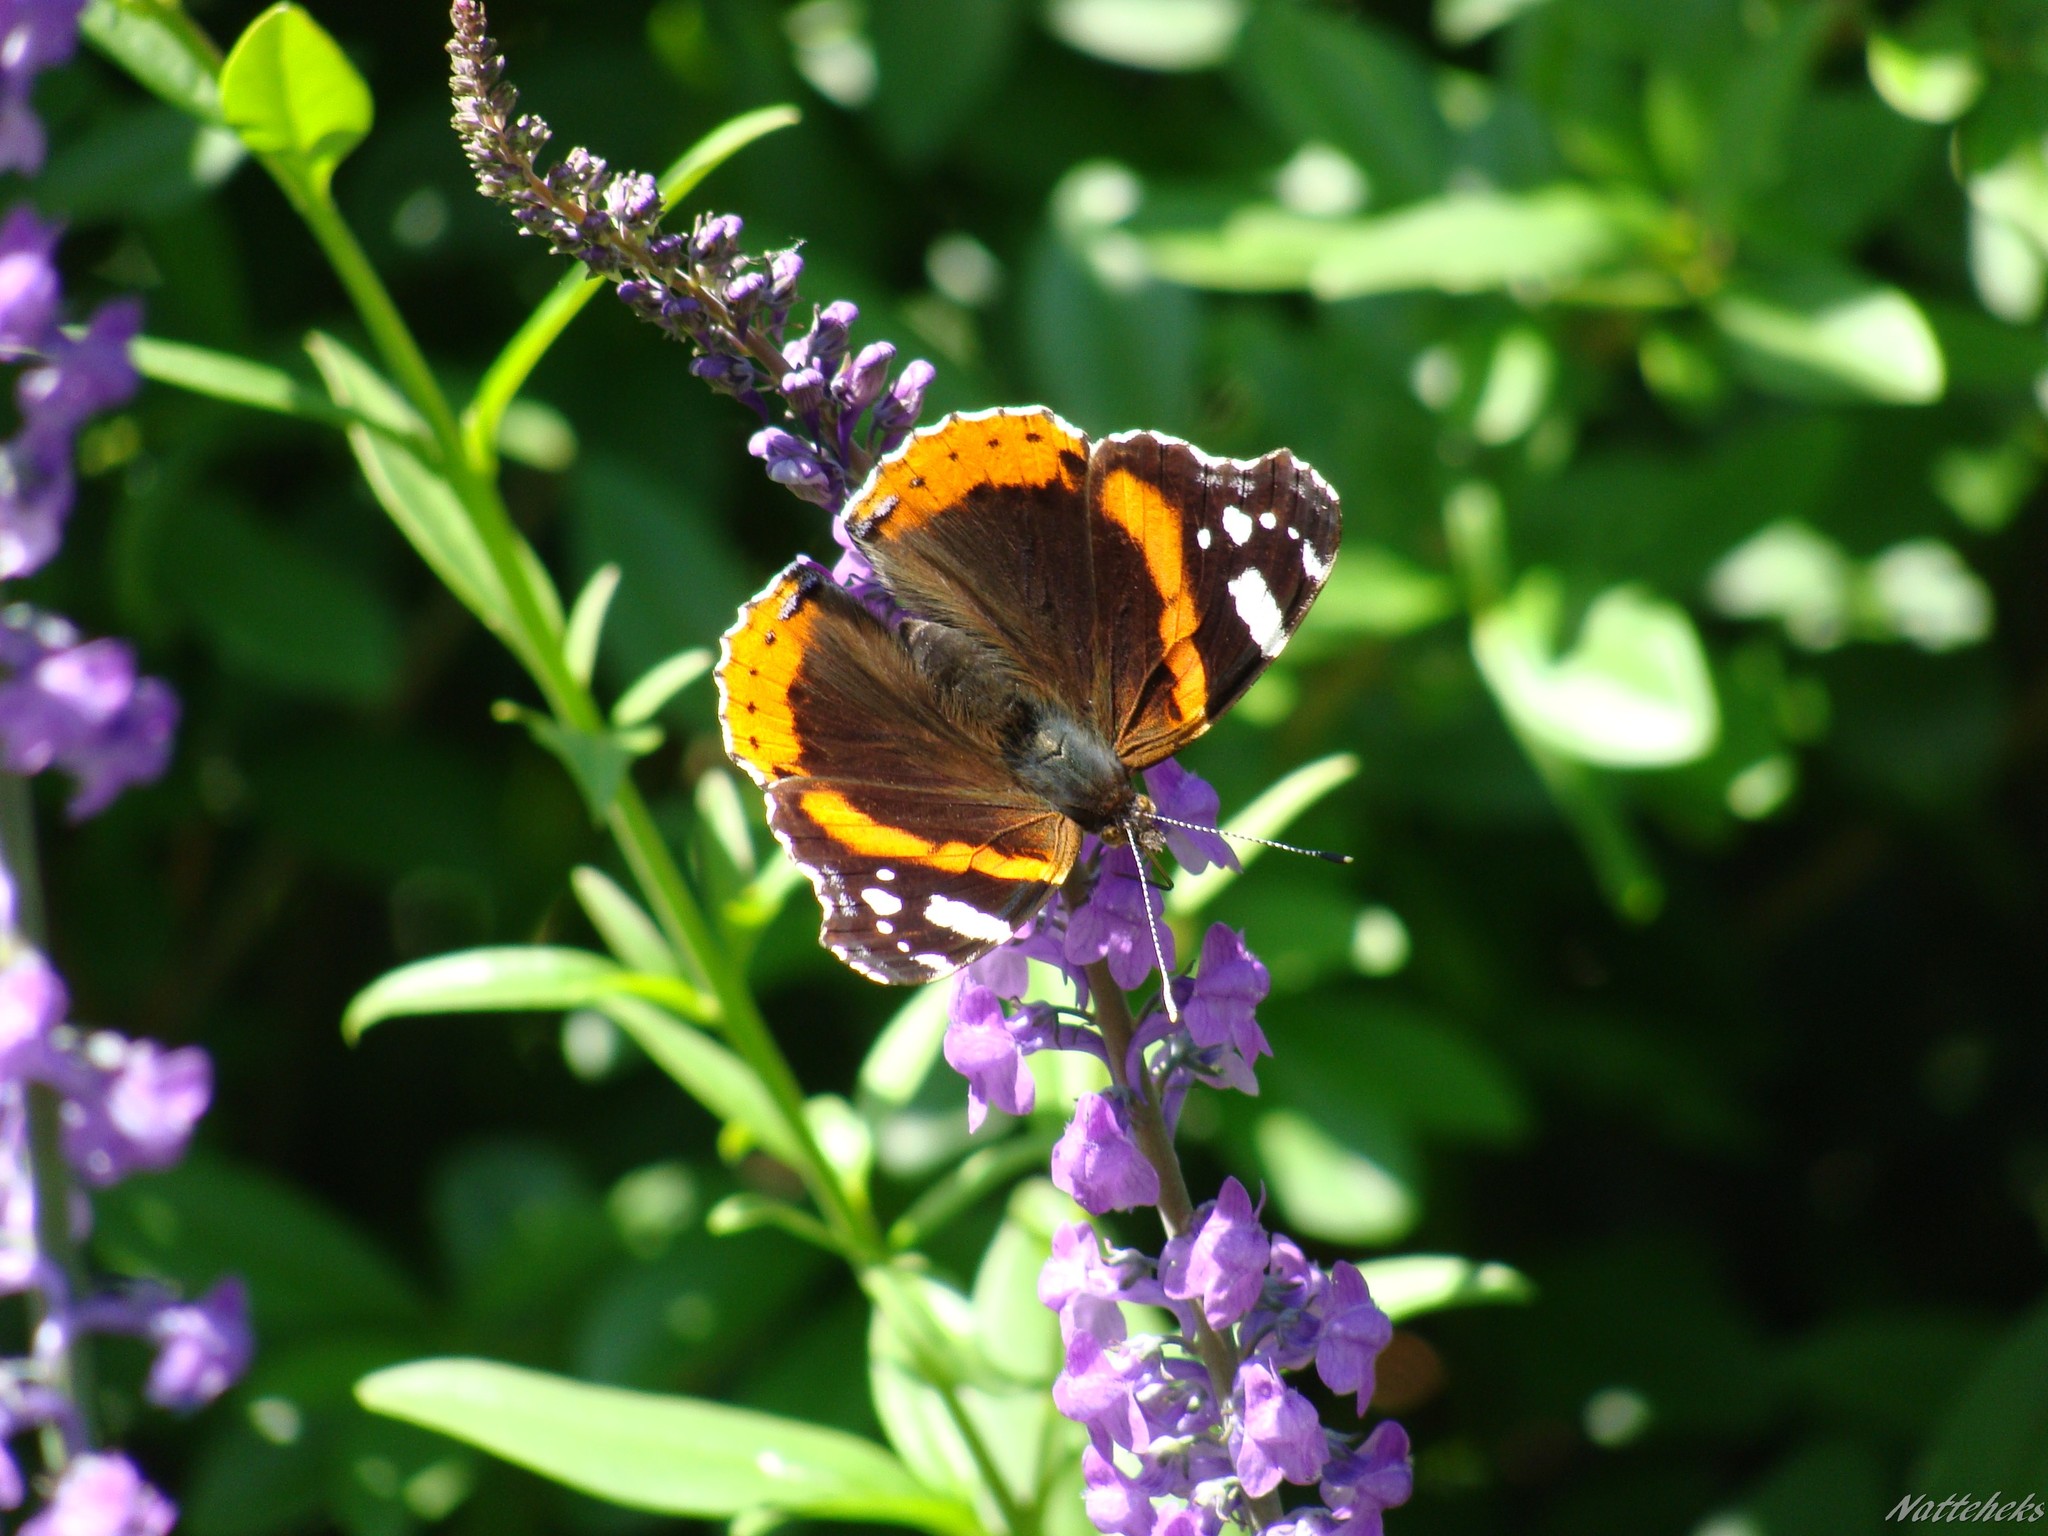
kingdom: Animalia
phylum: Arthropoda
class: Insecta
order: Lepidoptera
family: Nymphalidae
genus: Vanessa
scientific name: Vanessa atalanta
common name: Red admiral
